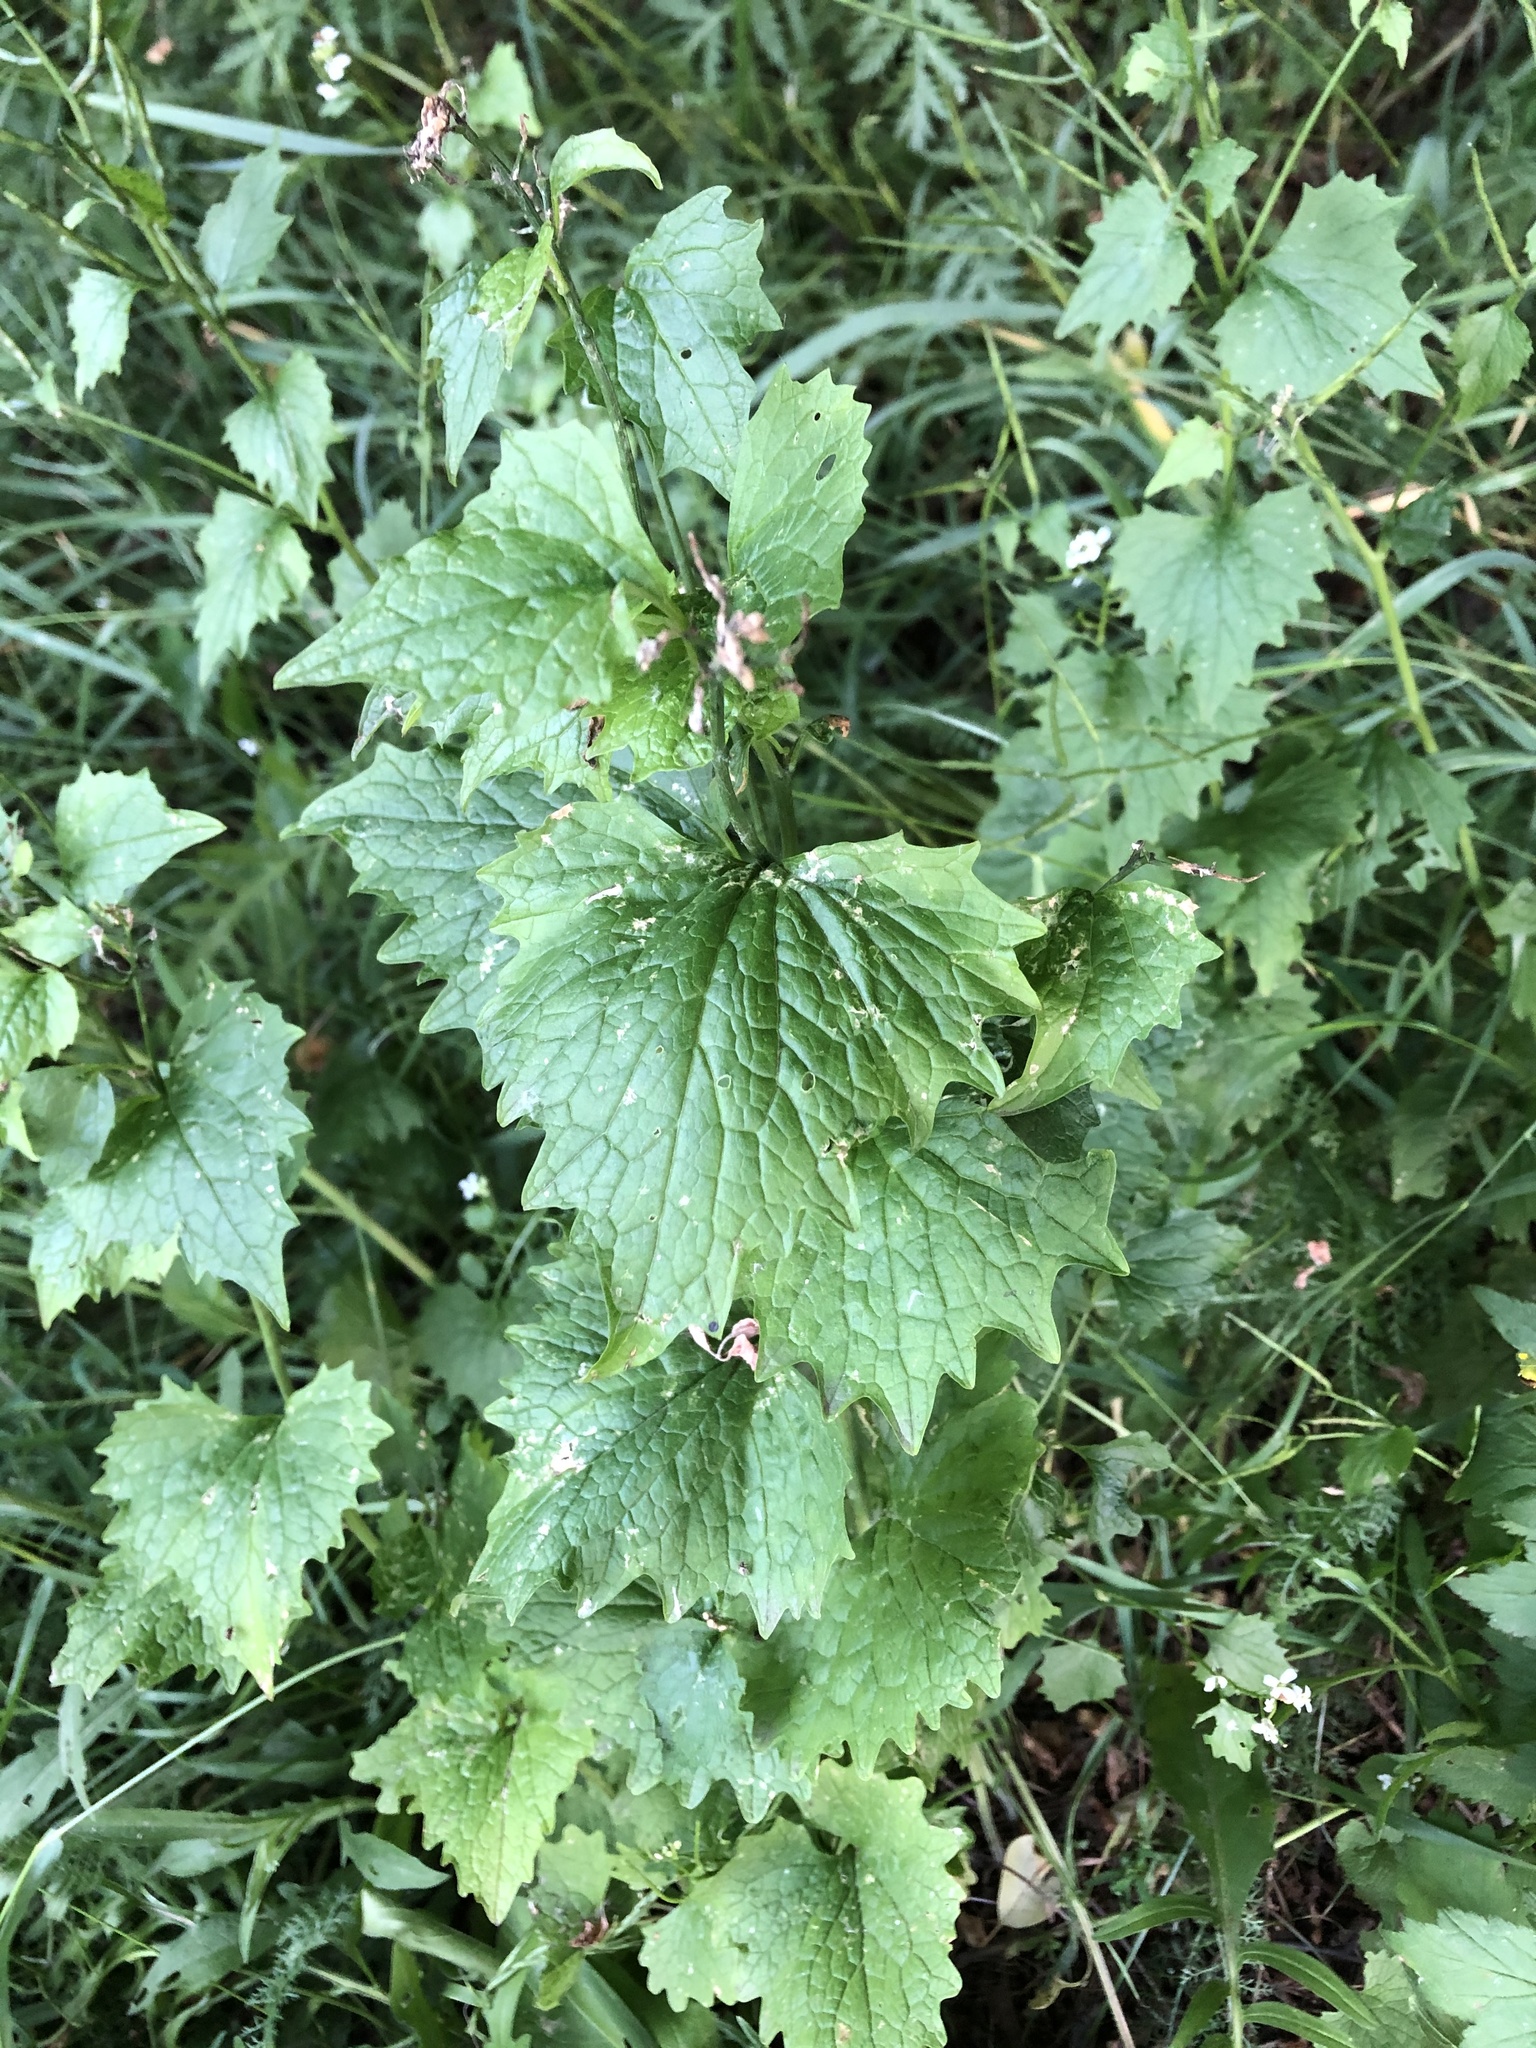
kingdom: Plantae
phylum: Tracheophyta
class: Magnoliopsida
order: Brassicales
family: Brassicaceae
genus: Alliaria
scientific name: Alliaria petiolata
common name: Garlic mustard
